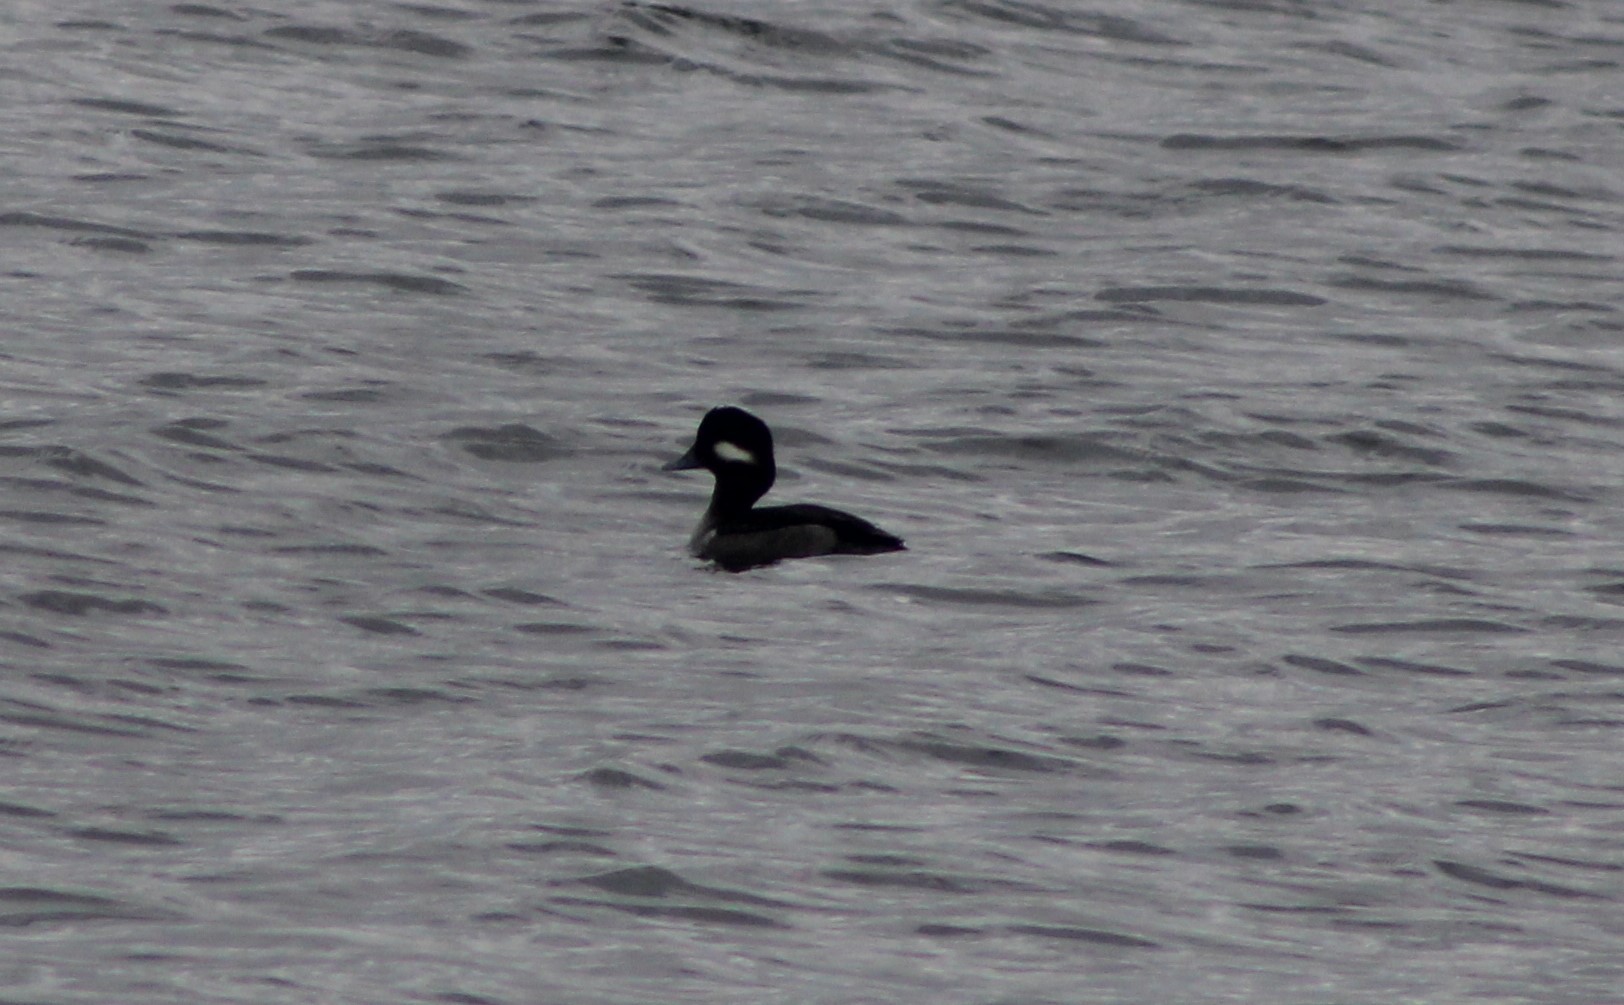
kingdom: Animalia
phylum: Chordata
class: Aves
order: Anseriformes
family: Anatidae
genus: Bucephala
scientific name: Bucephala albeola
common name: Bufflehead
